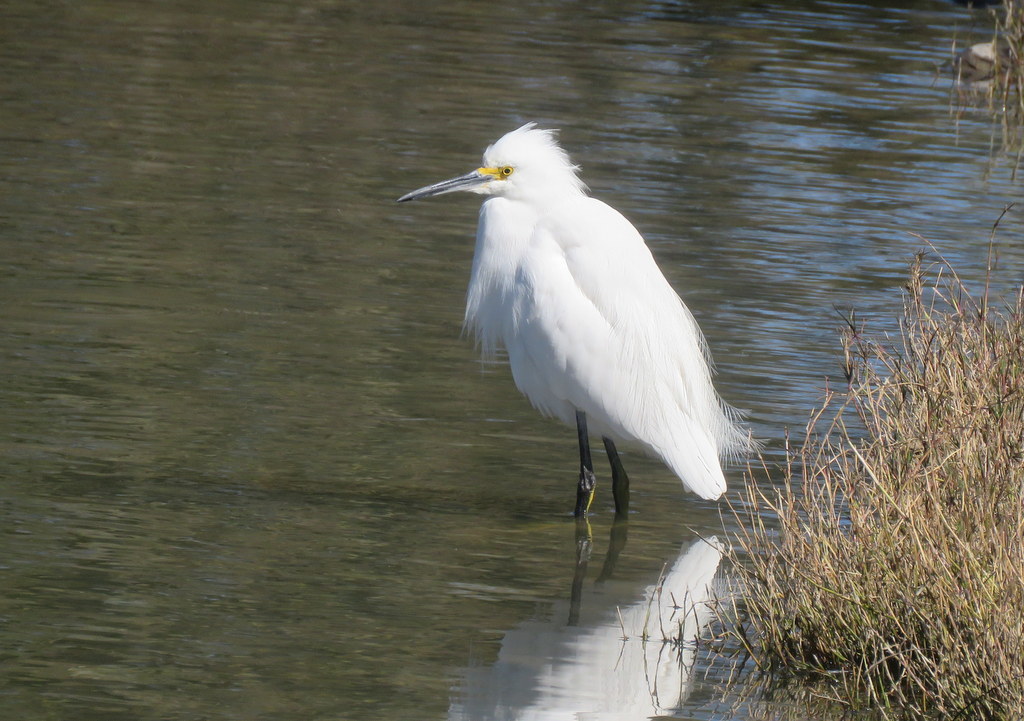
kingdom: Animalia
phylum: Chordata
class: Aves
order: Pelecaniformes
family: Ardeidae
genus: Egretta
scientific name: Egretta thula
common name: Snowy egret
